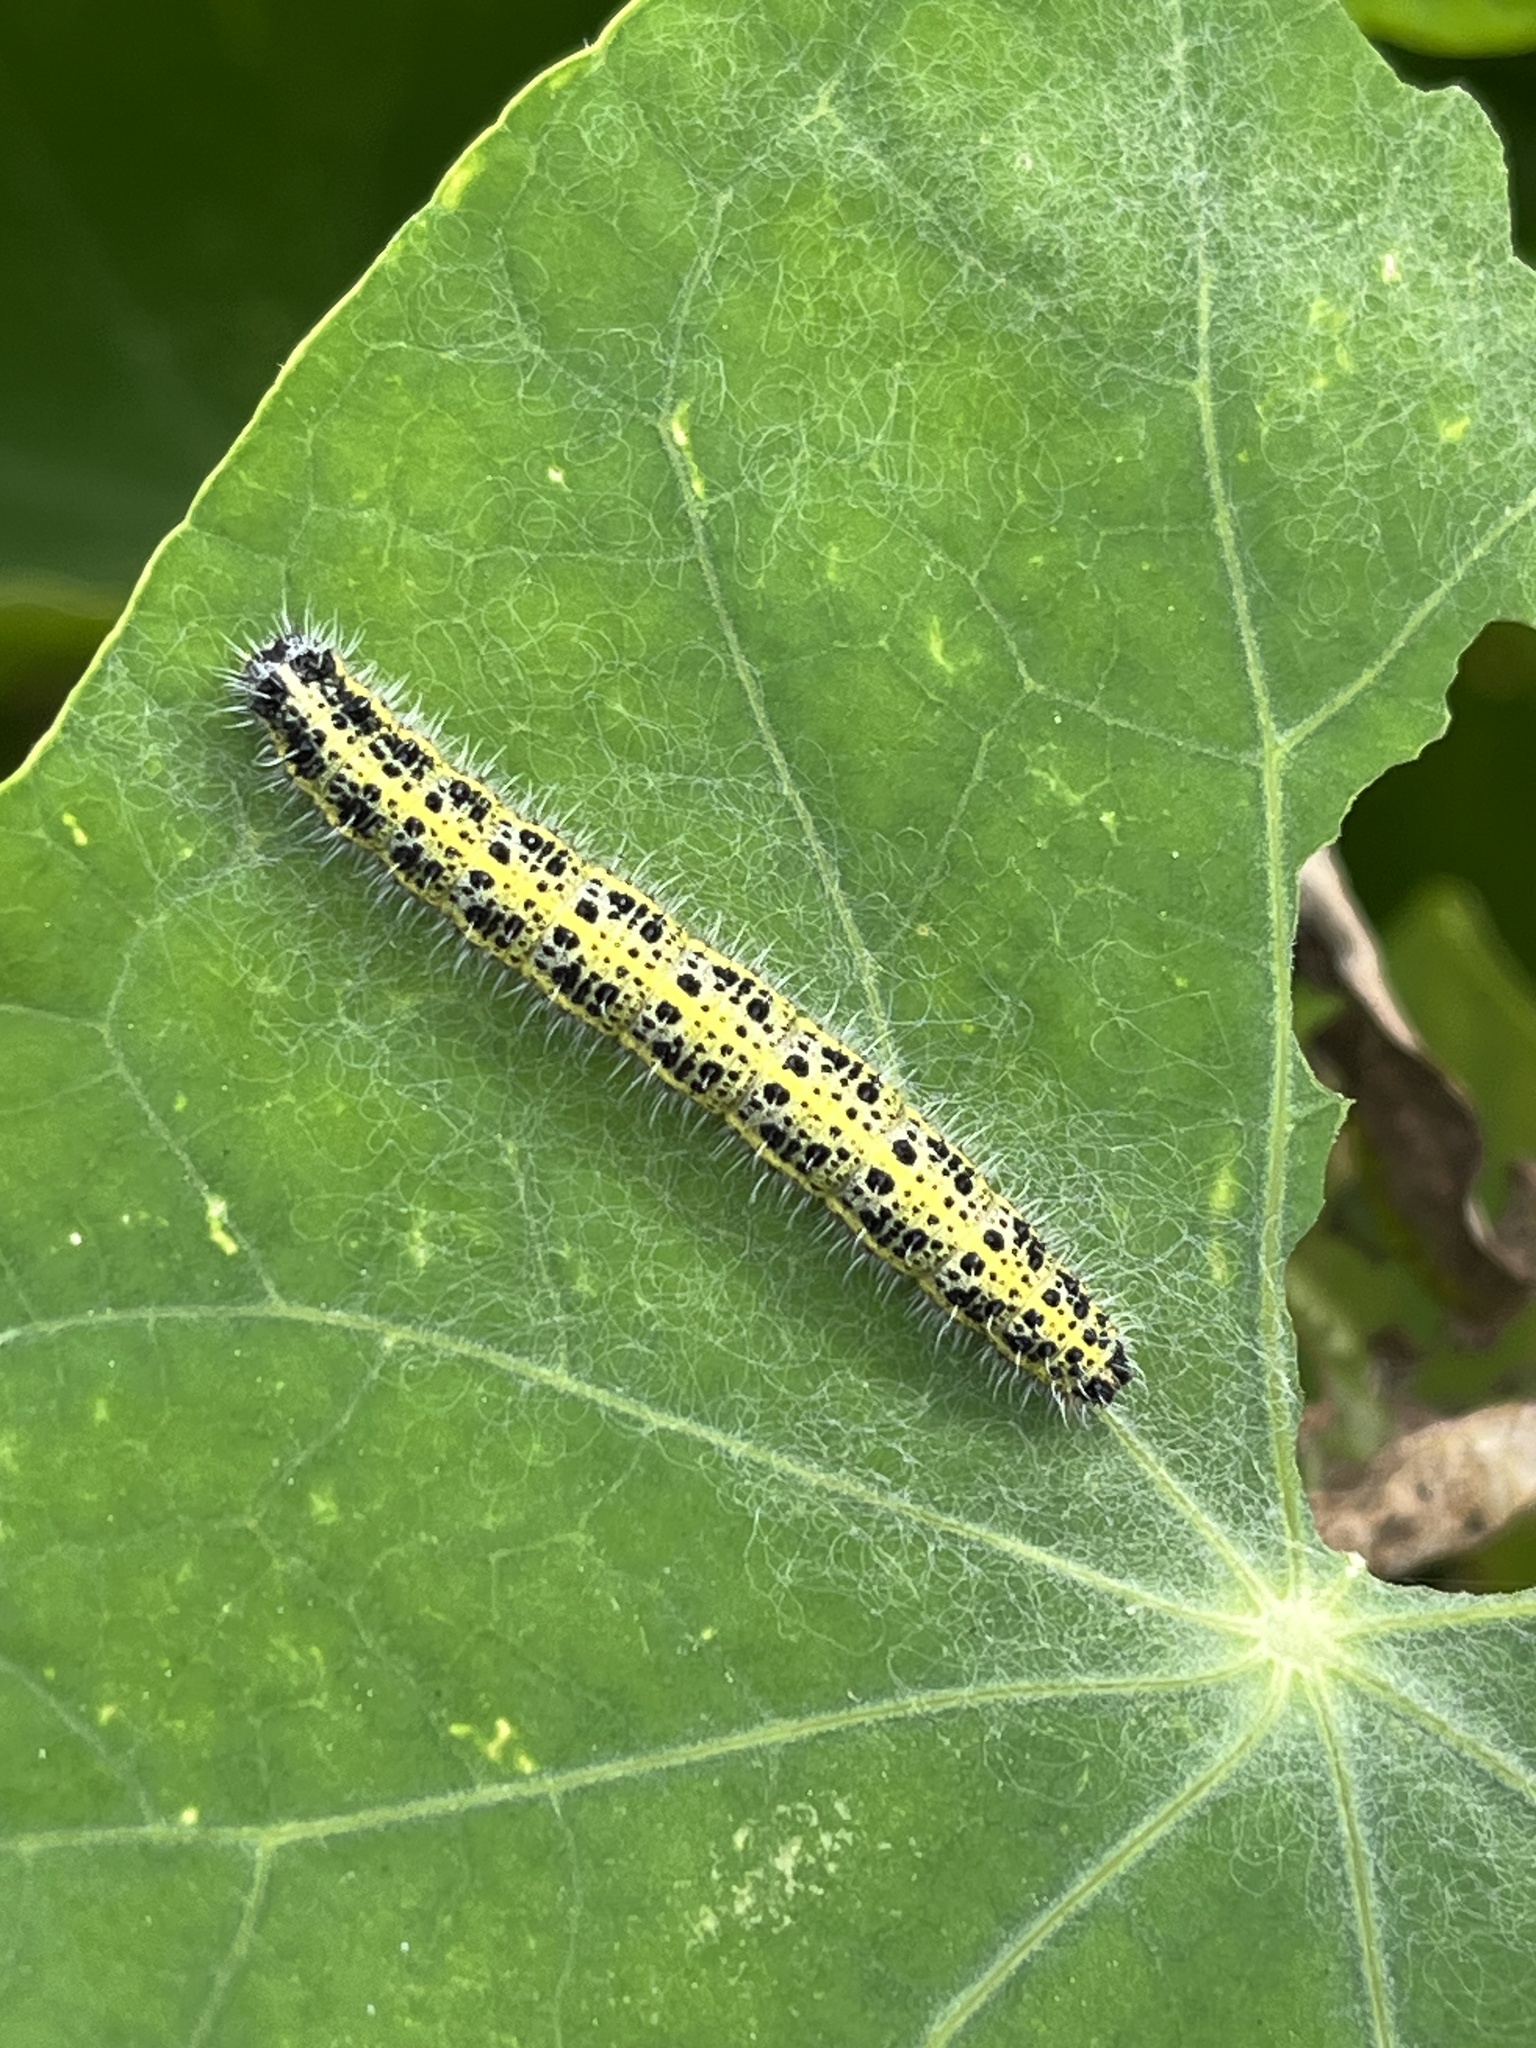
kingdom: Animalia
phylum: Arthropoda
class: Insecta
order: Lepidoptera
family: Pieridae
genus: Pieris
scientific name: Pieris brassicae
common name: Large white
